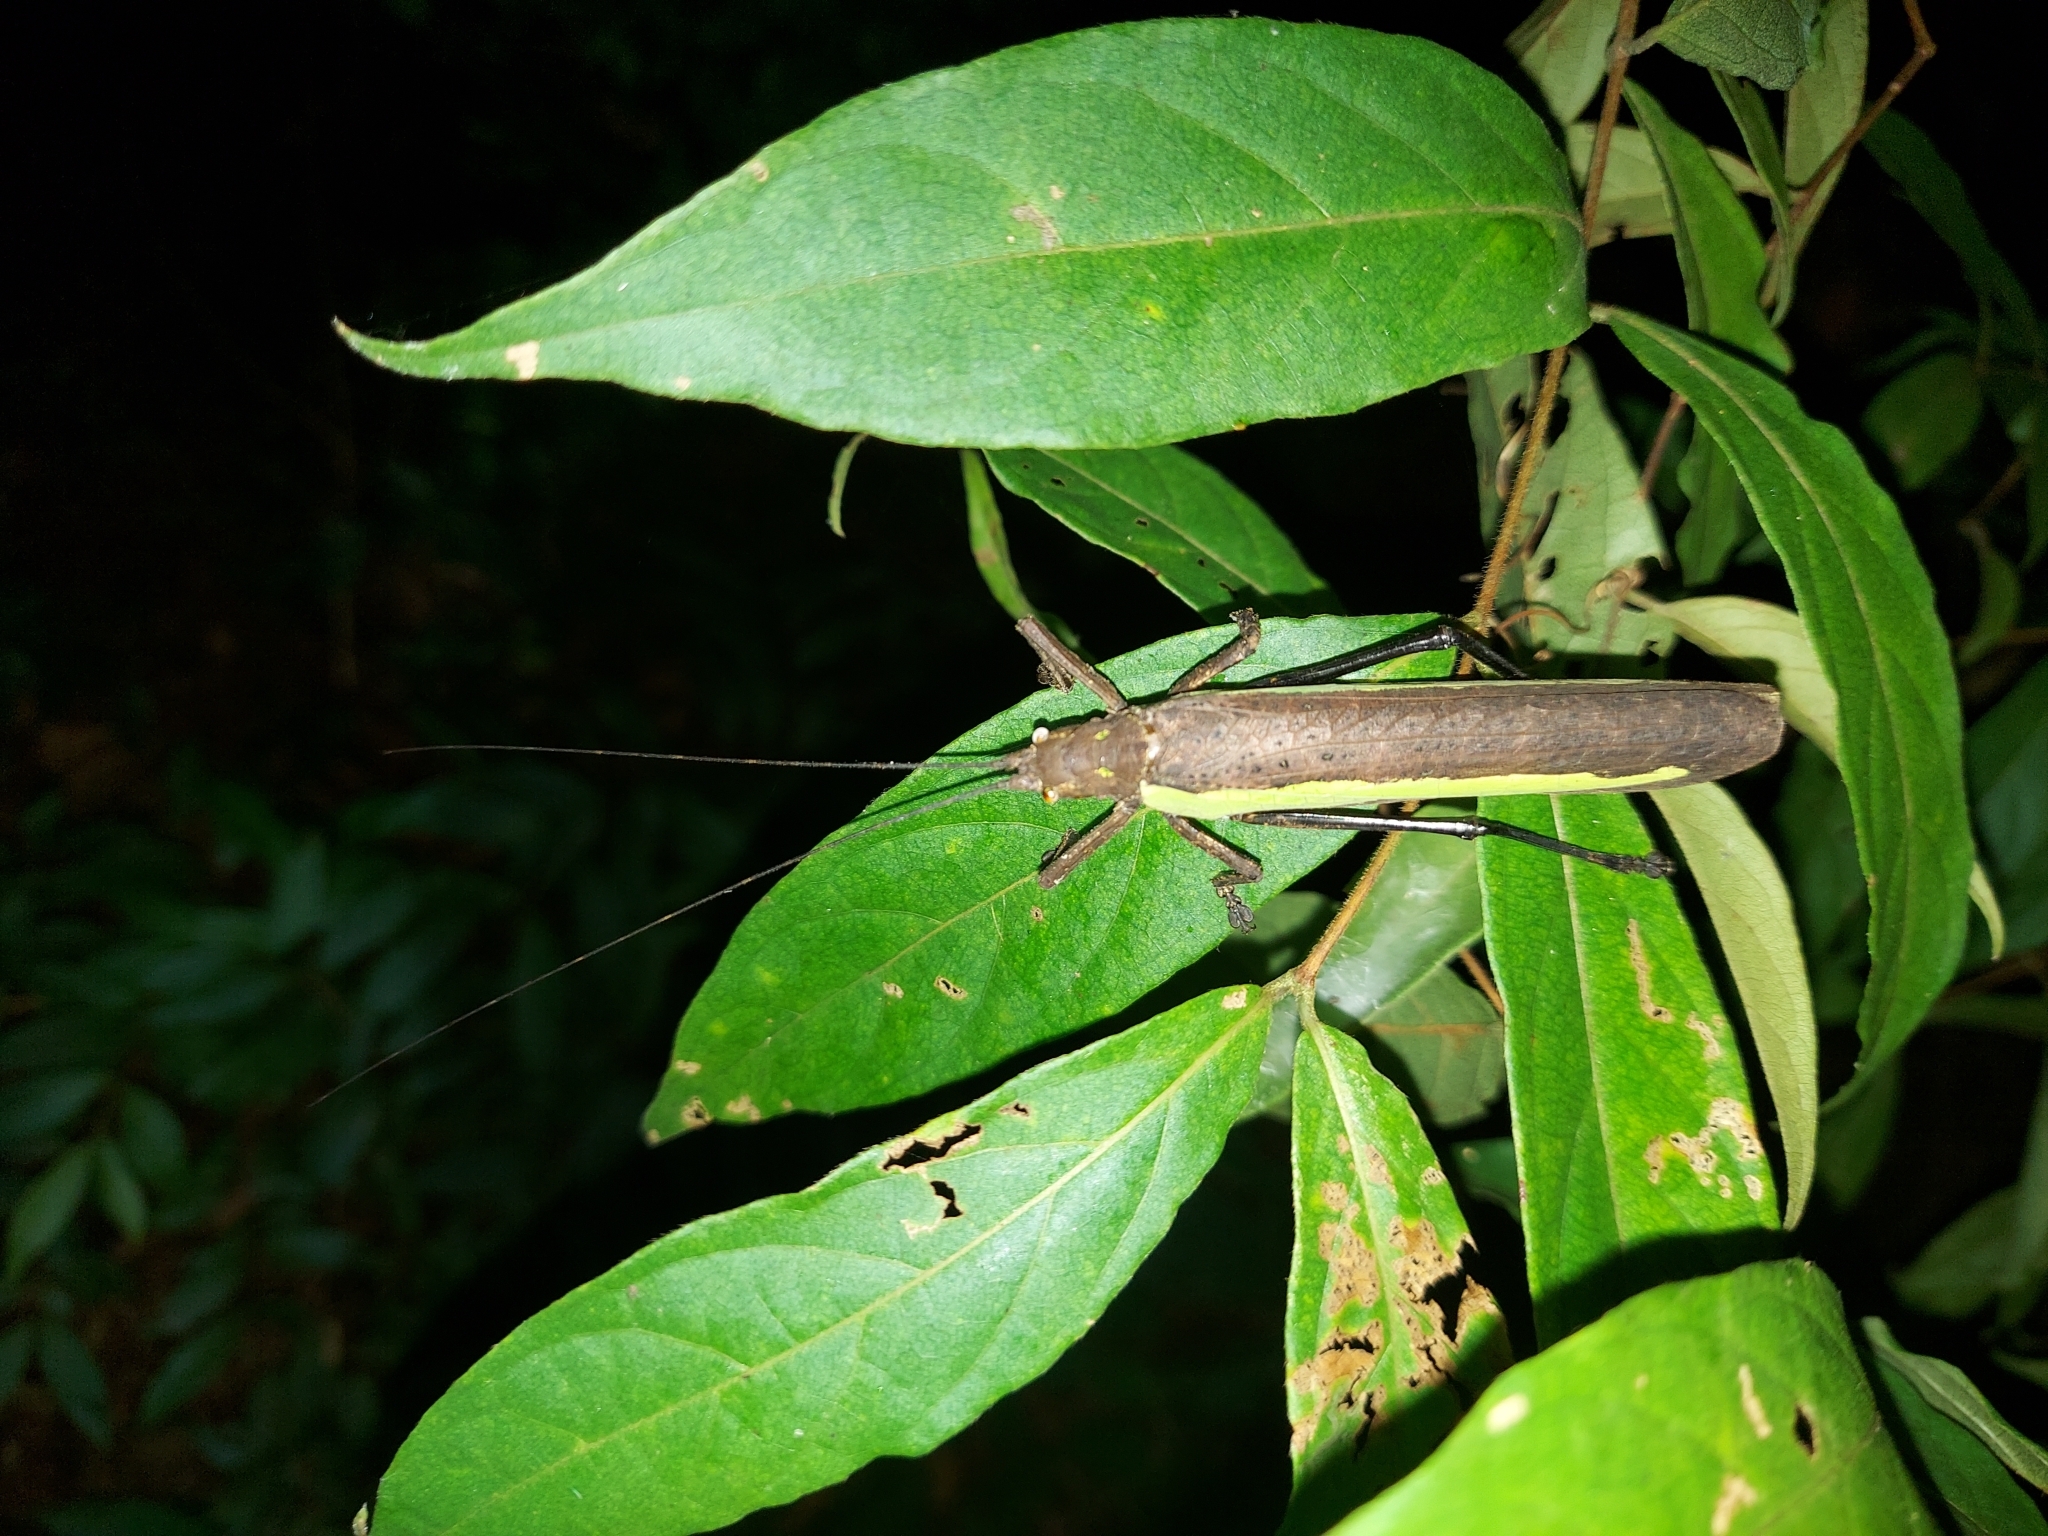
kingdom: Animalia
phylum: Arthropoda
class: Insecta
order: Orthoptera
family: Tettigoniidae
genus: Tegra
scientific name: Tegra viridivitta
